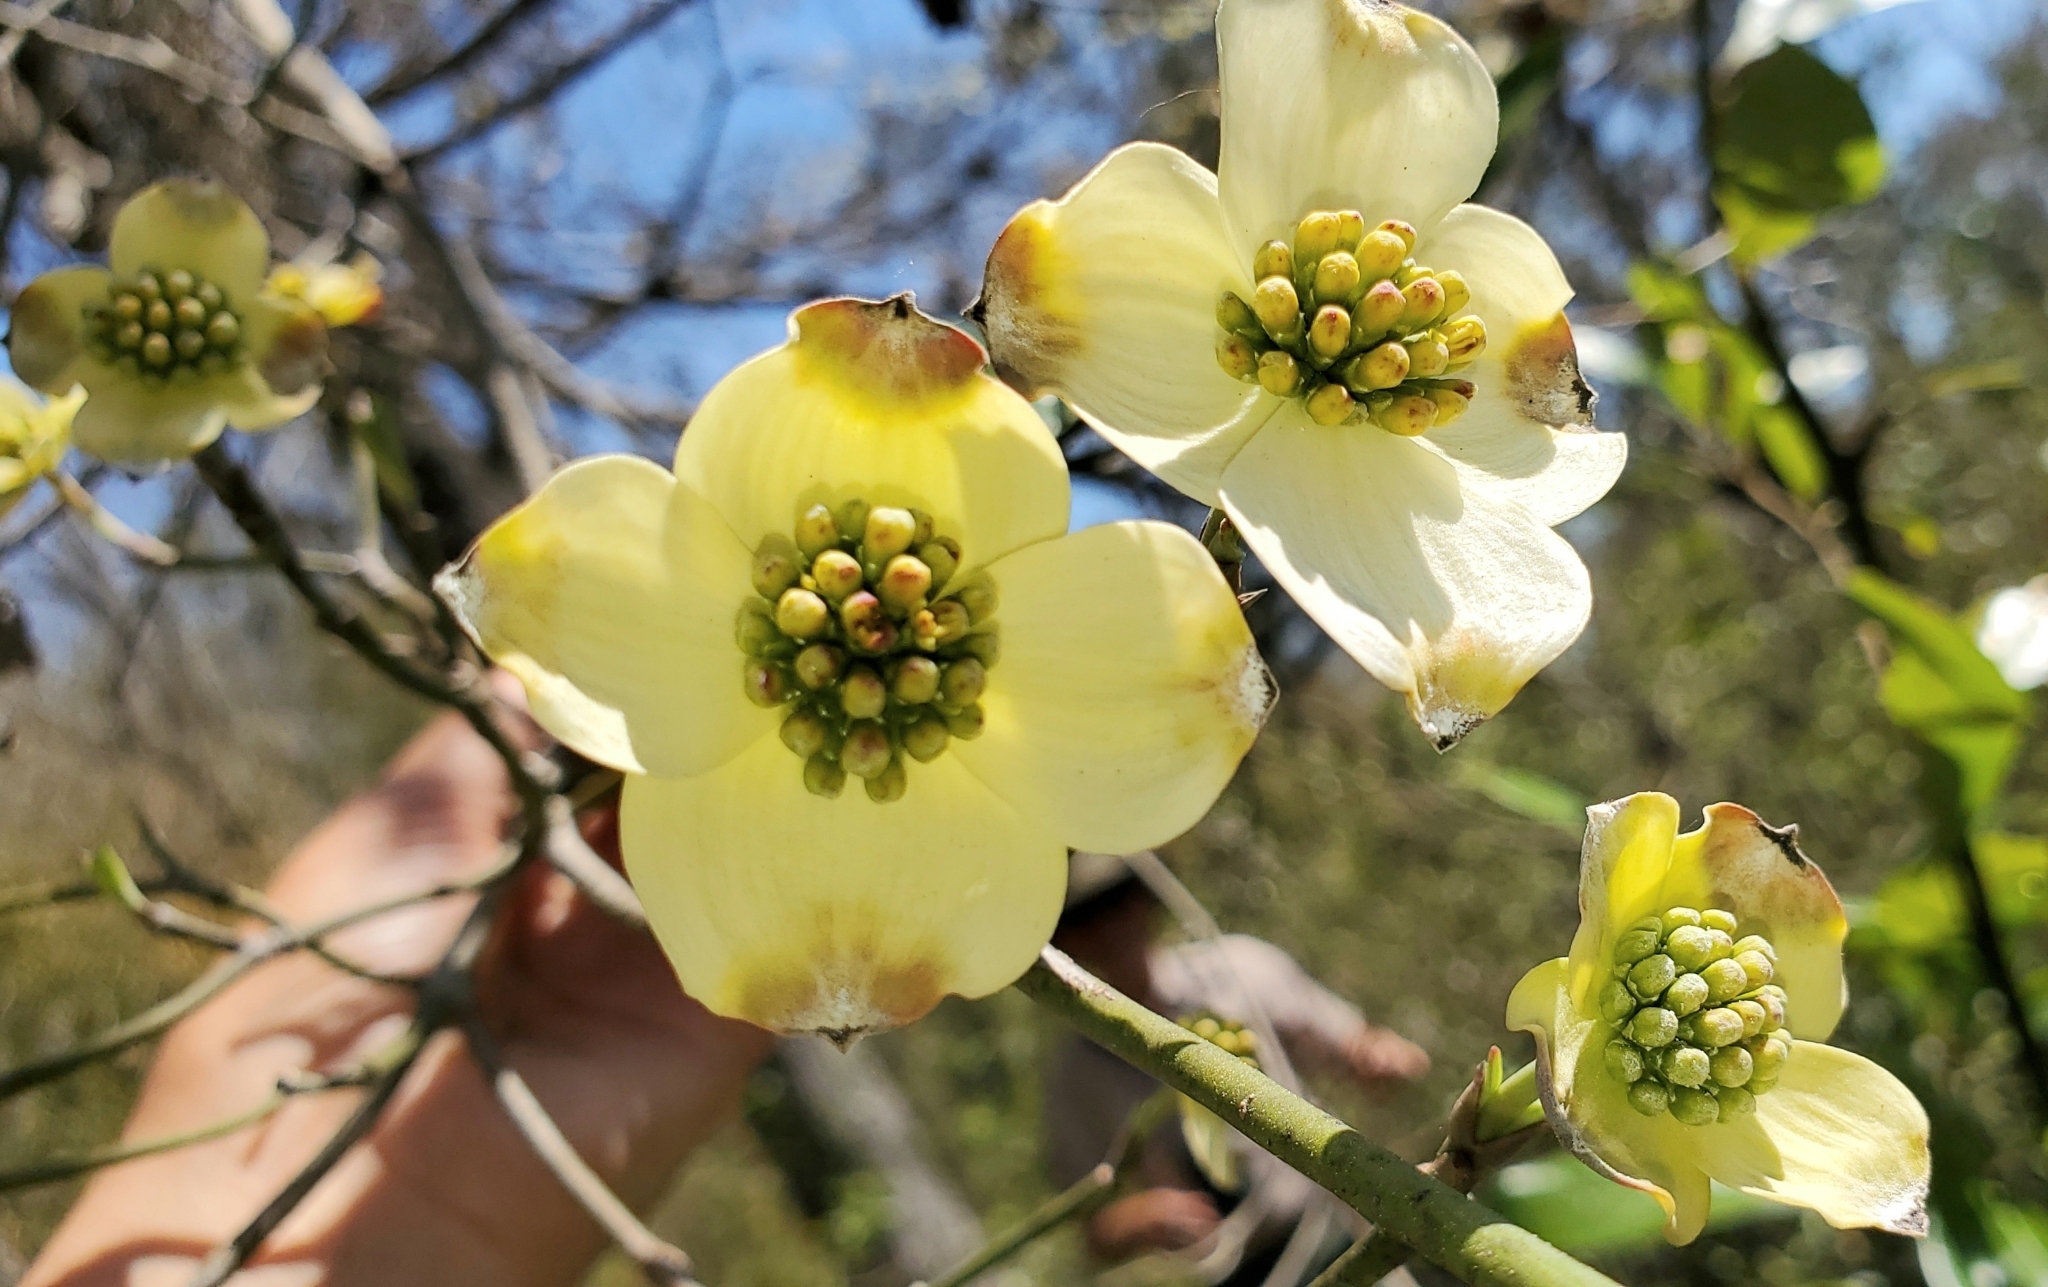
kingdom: Plantae
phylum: Tracheophyta
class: Magnoliopsida
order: Cornales
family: Cornaceae
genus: Cornus
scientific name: Cornus florida
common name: Flowering dogwood
